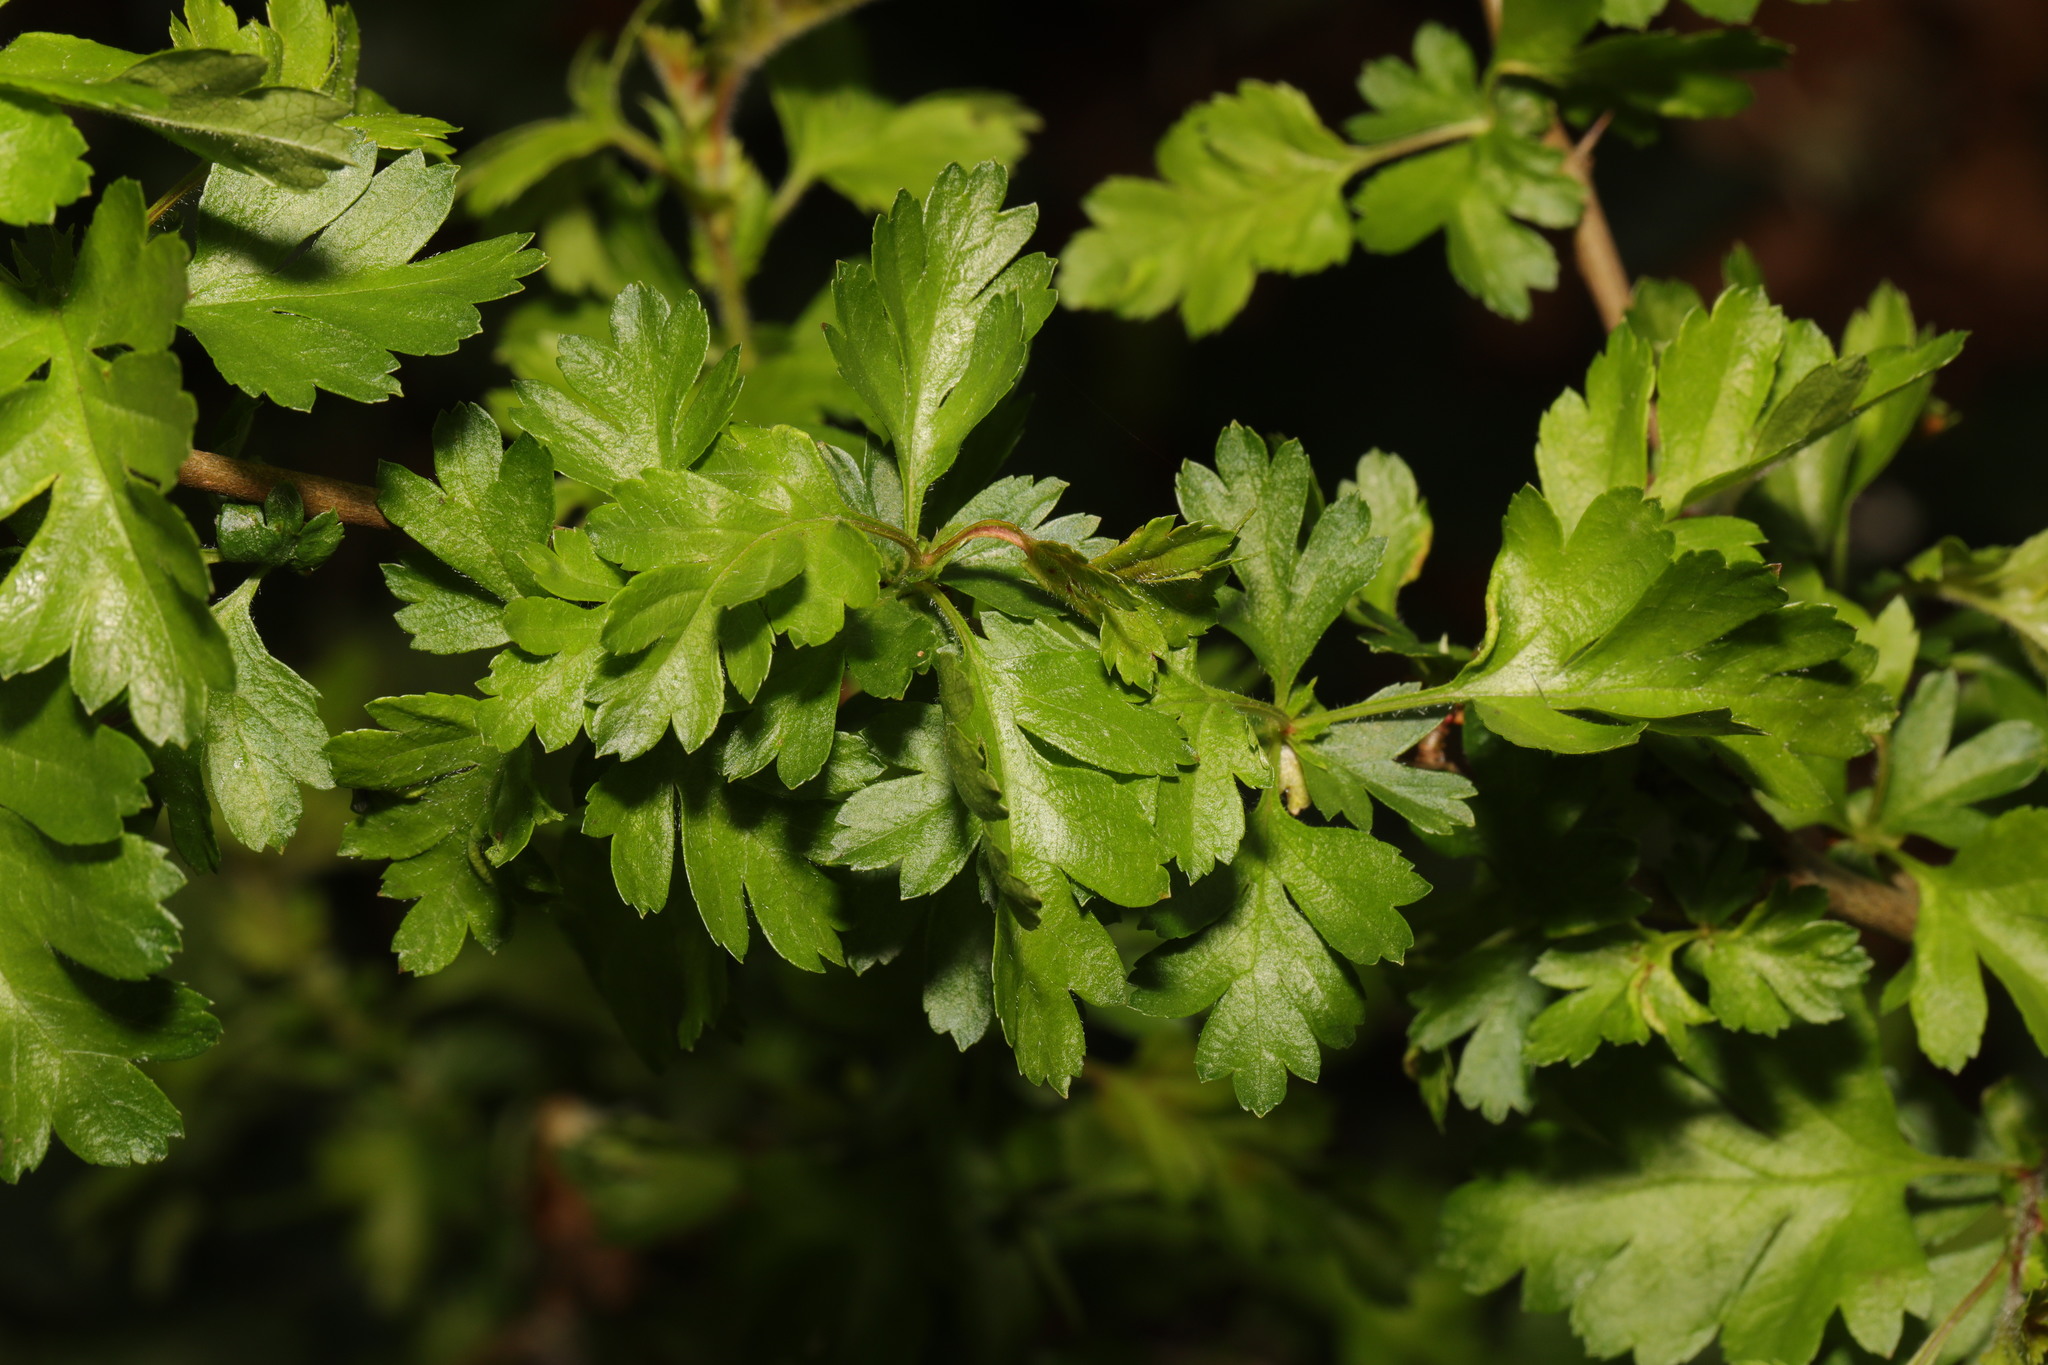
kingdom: Plantae
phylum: Tracheophyta
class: Magnoliopsida
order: Rosales
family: Rosaceae
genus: Crataegus
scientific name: Crataegus monogyna
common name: Hawthorn
